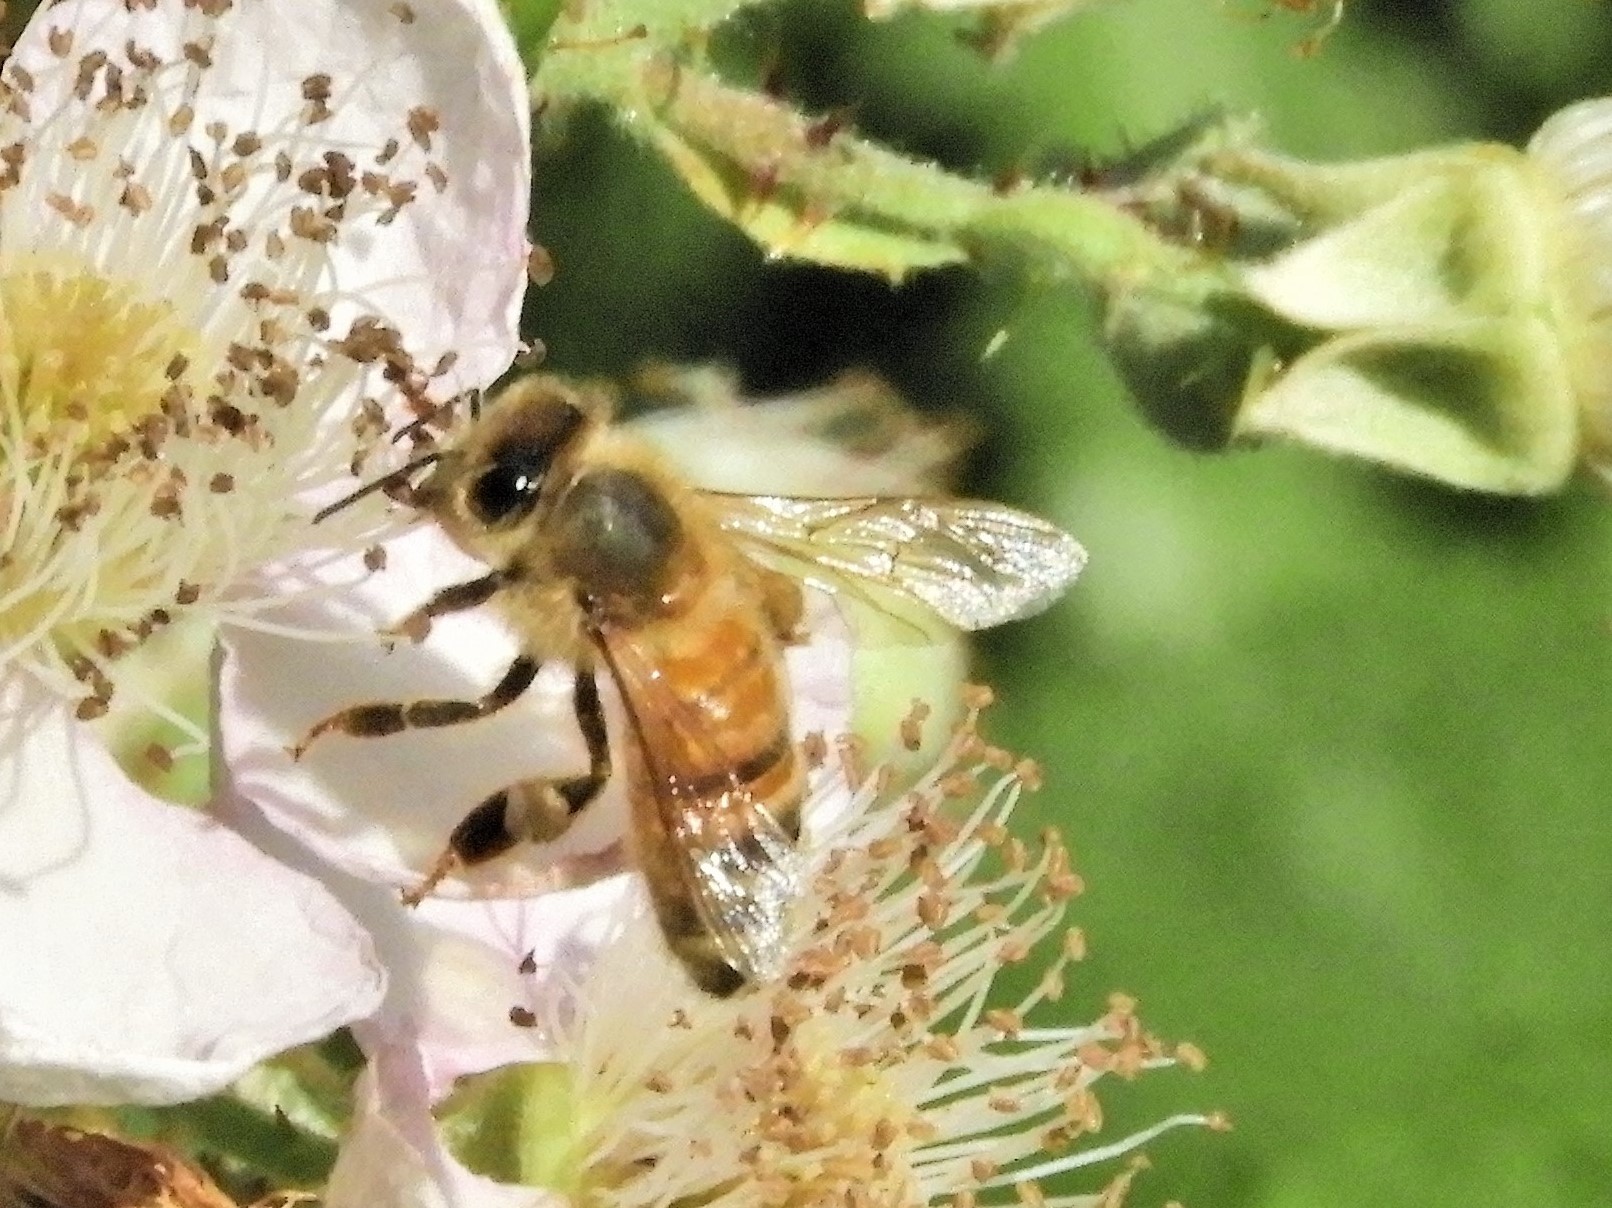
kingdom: Animalia
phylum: Arthropoda
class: Insecta
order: Hymenoptera
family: Apidae
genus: Apis
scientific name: Apis mellifera
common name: Honey bee
